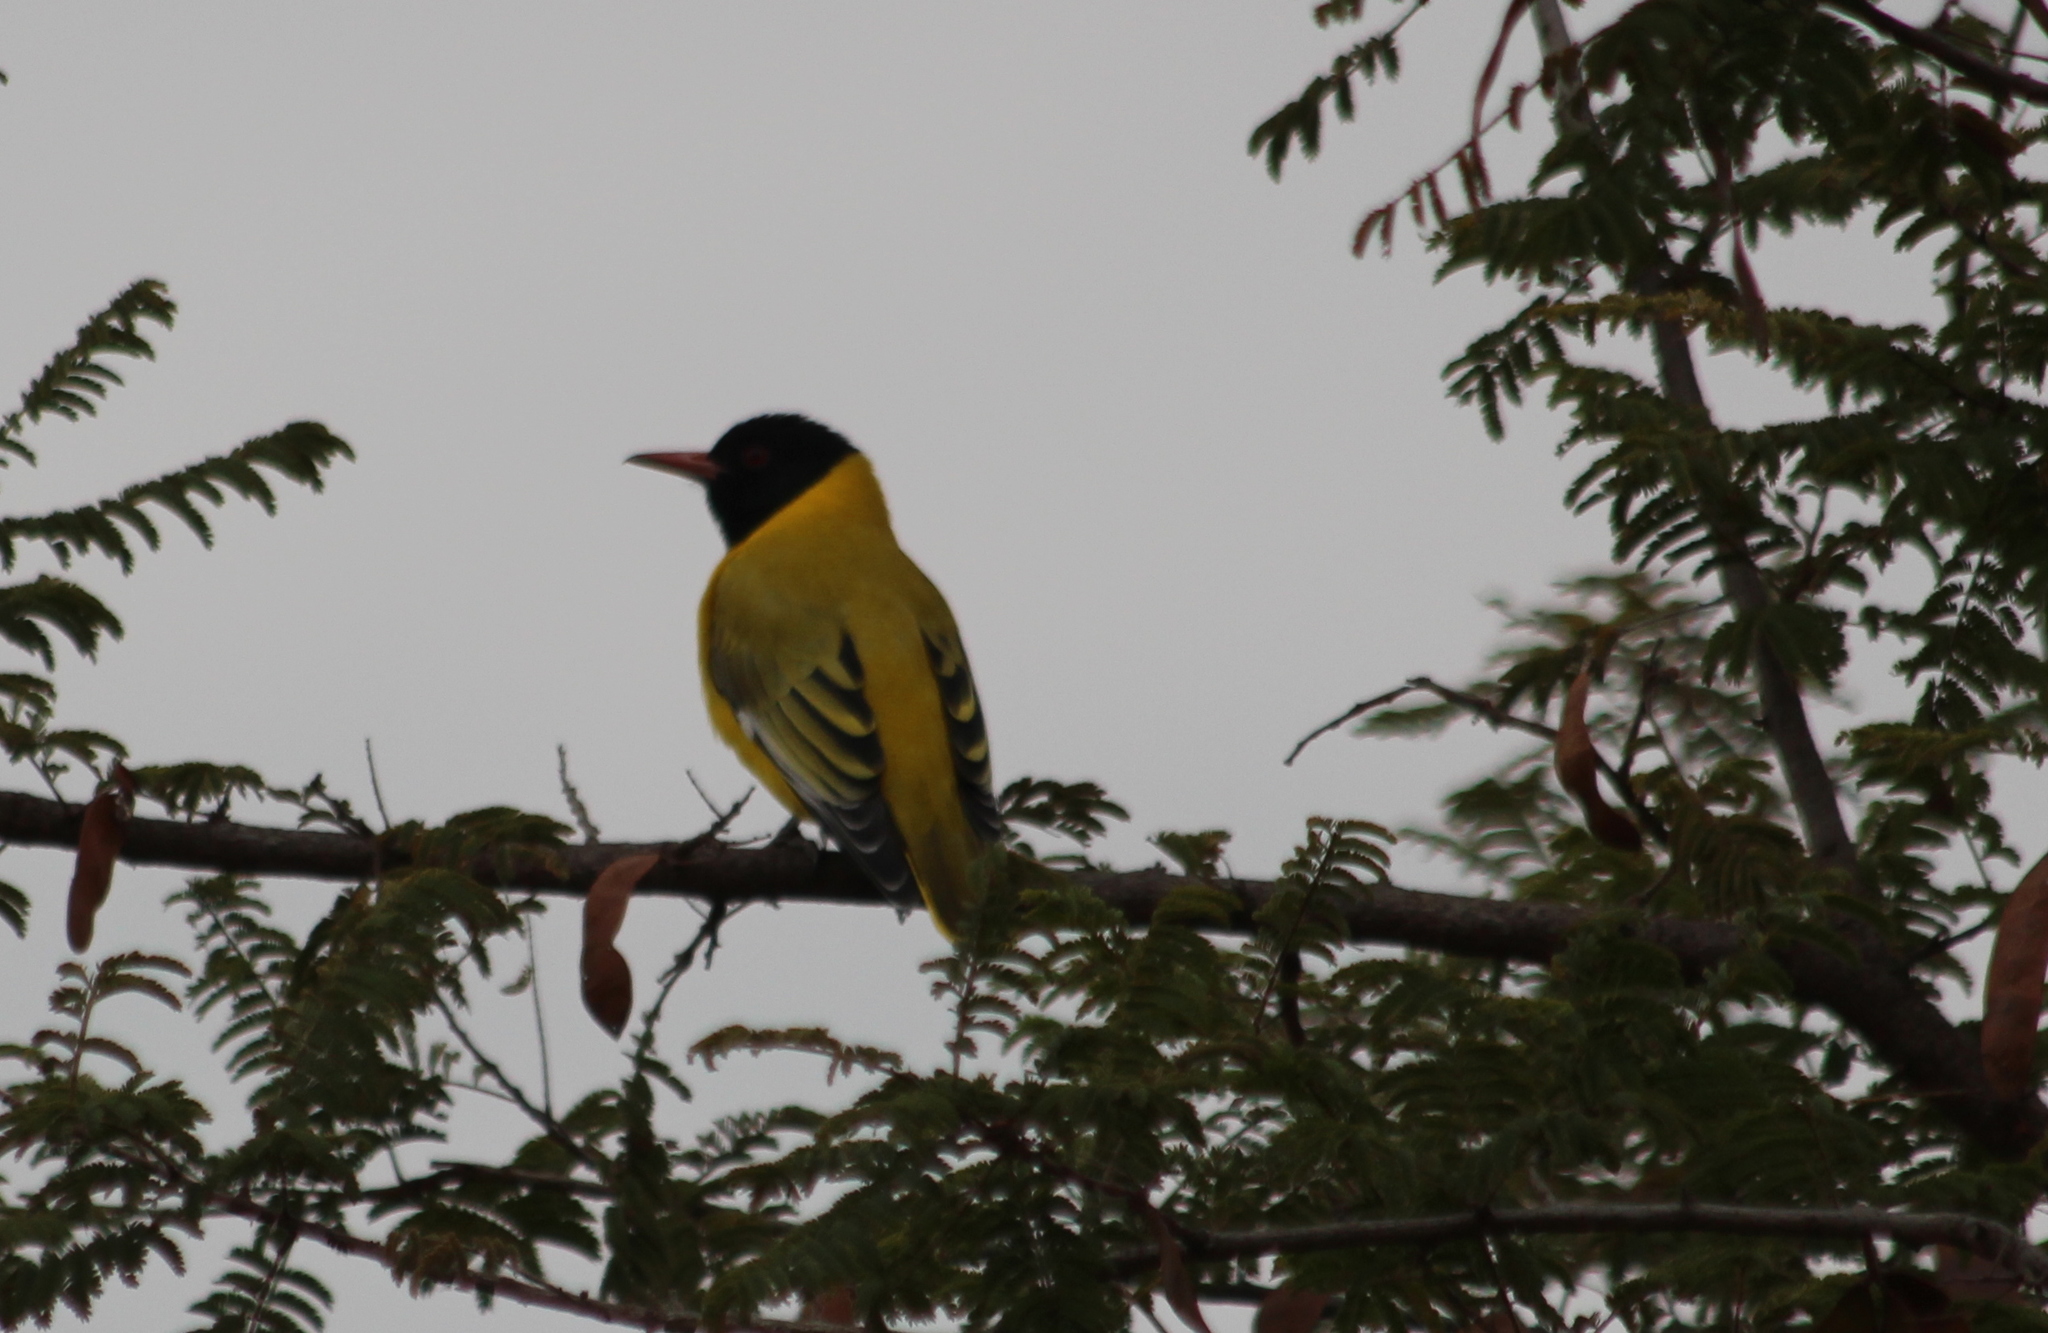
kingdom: Animalia
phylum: Chordata
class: Aves
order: Passeriformes
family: Oriolidae
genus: Oriolus
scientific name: Oriolus larvatus
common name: Black-headed oriole
